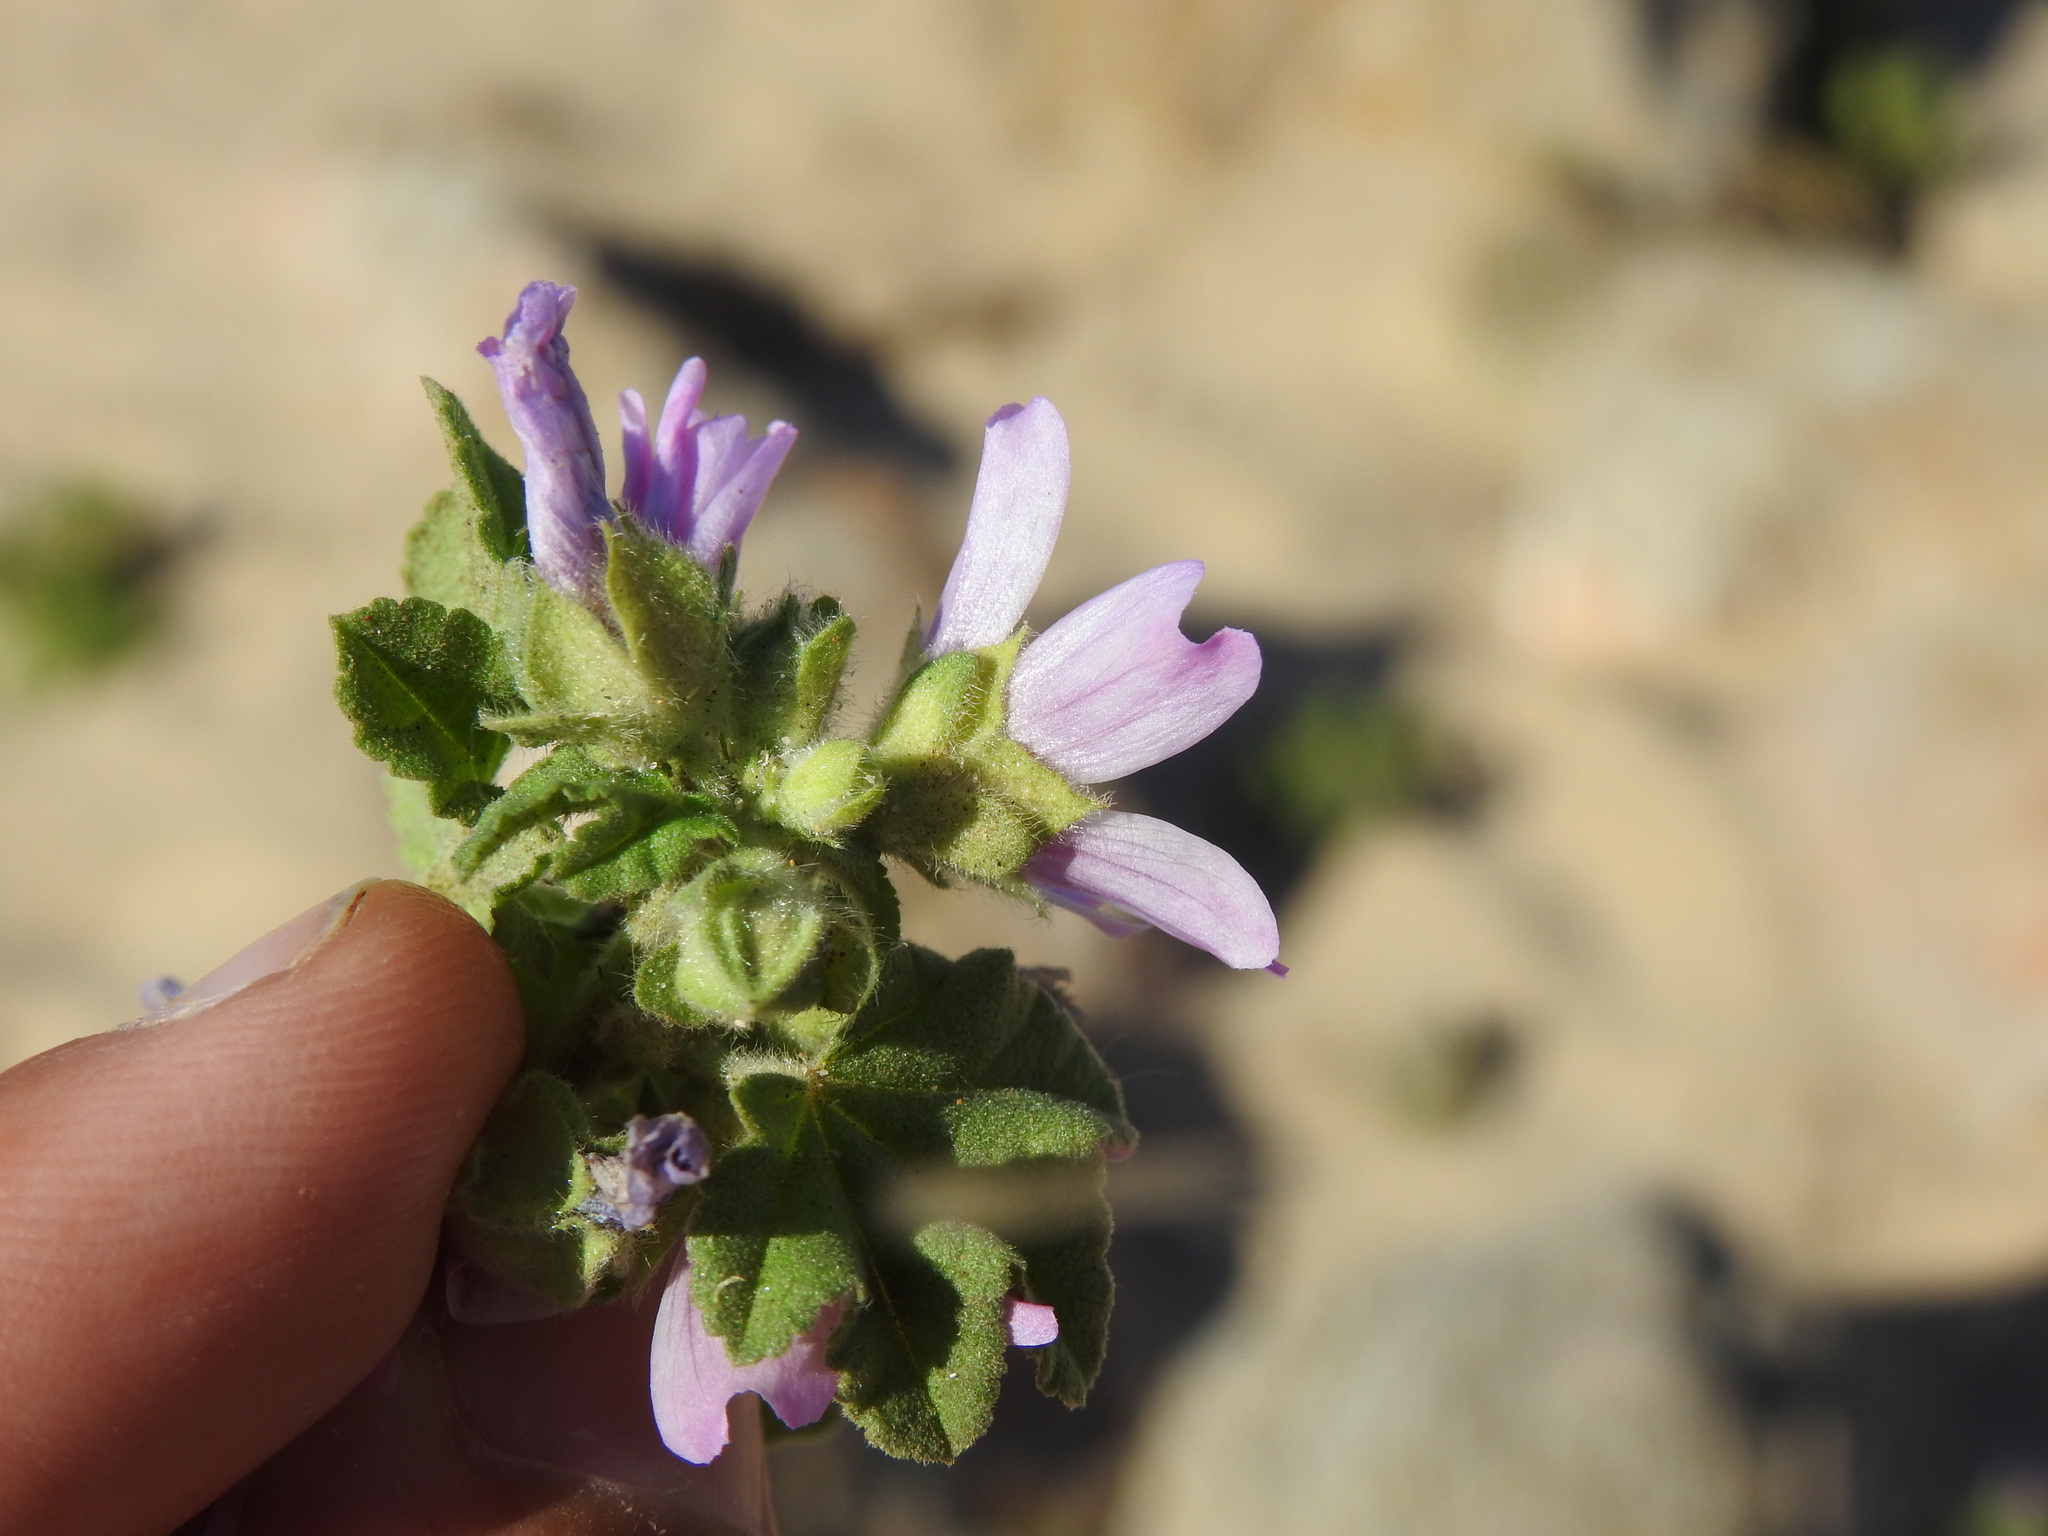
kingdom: Plantae
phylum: Tracheophyta
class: Magnoliopsida
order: Malvales
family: Malvaceae
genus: Malva
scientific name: Malva durieui
